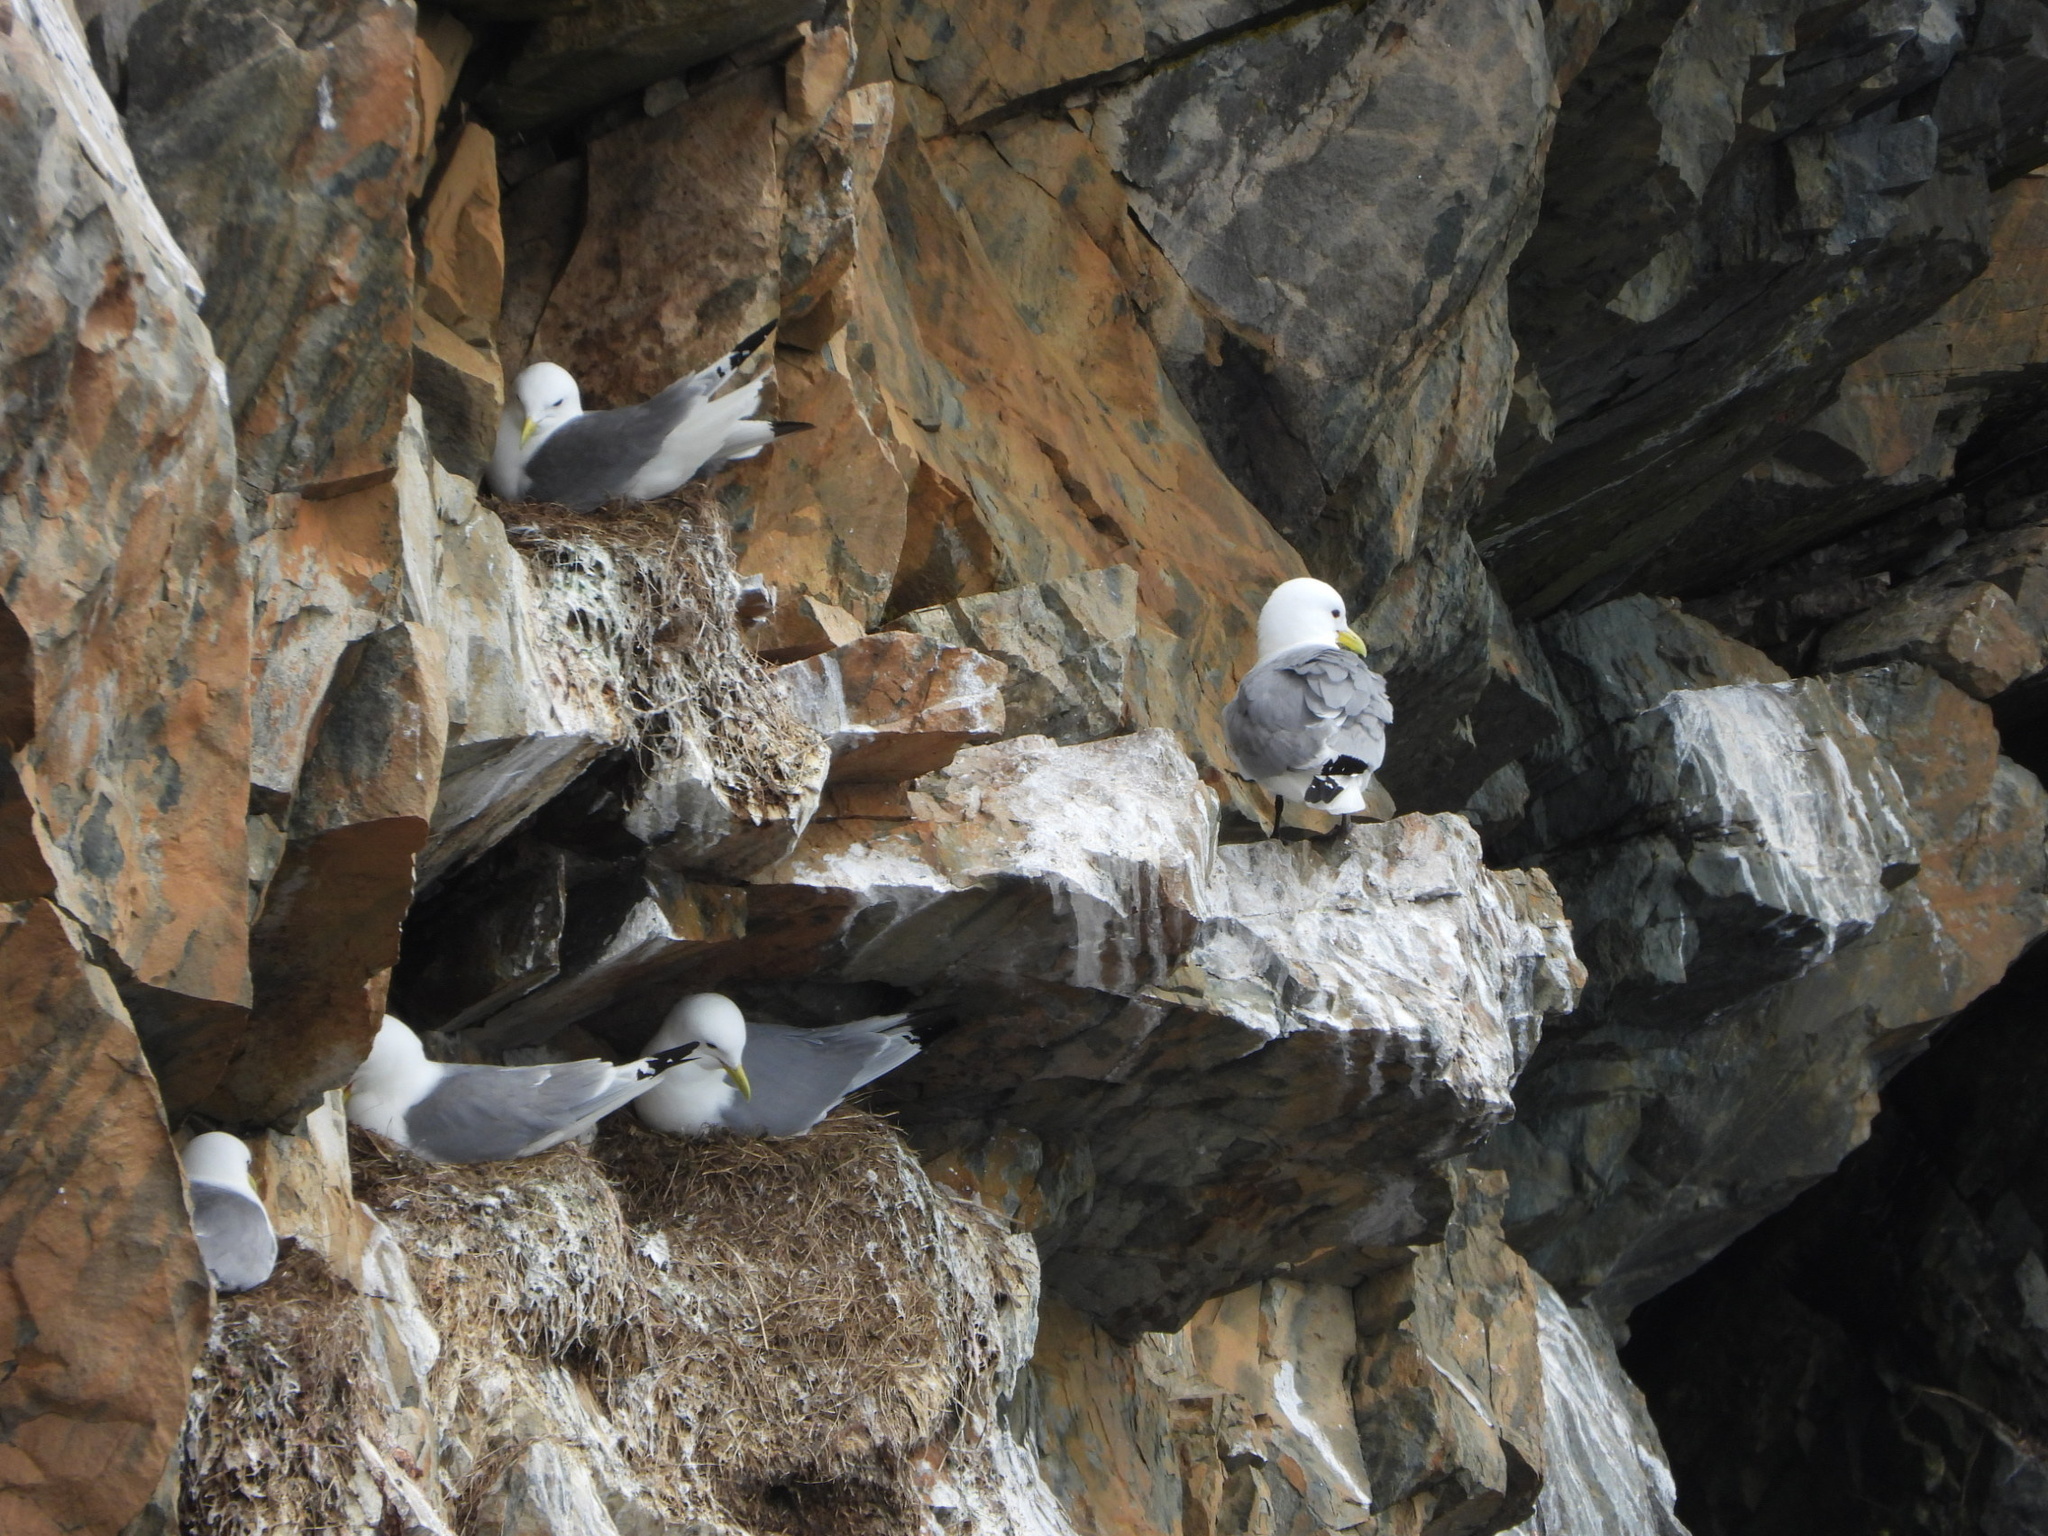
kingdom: Animalia
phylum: Chordata
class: Aves
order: Charadriiformes
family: Laridae
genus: Rissa
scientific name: Rissa tridactyla
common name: Black-legged kittiwake
